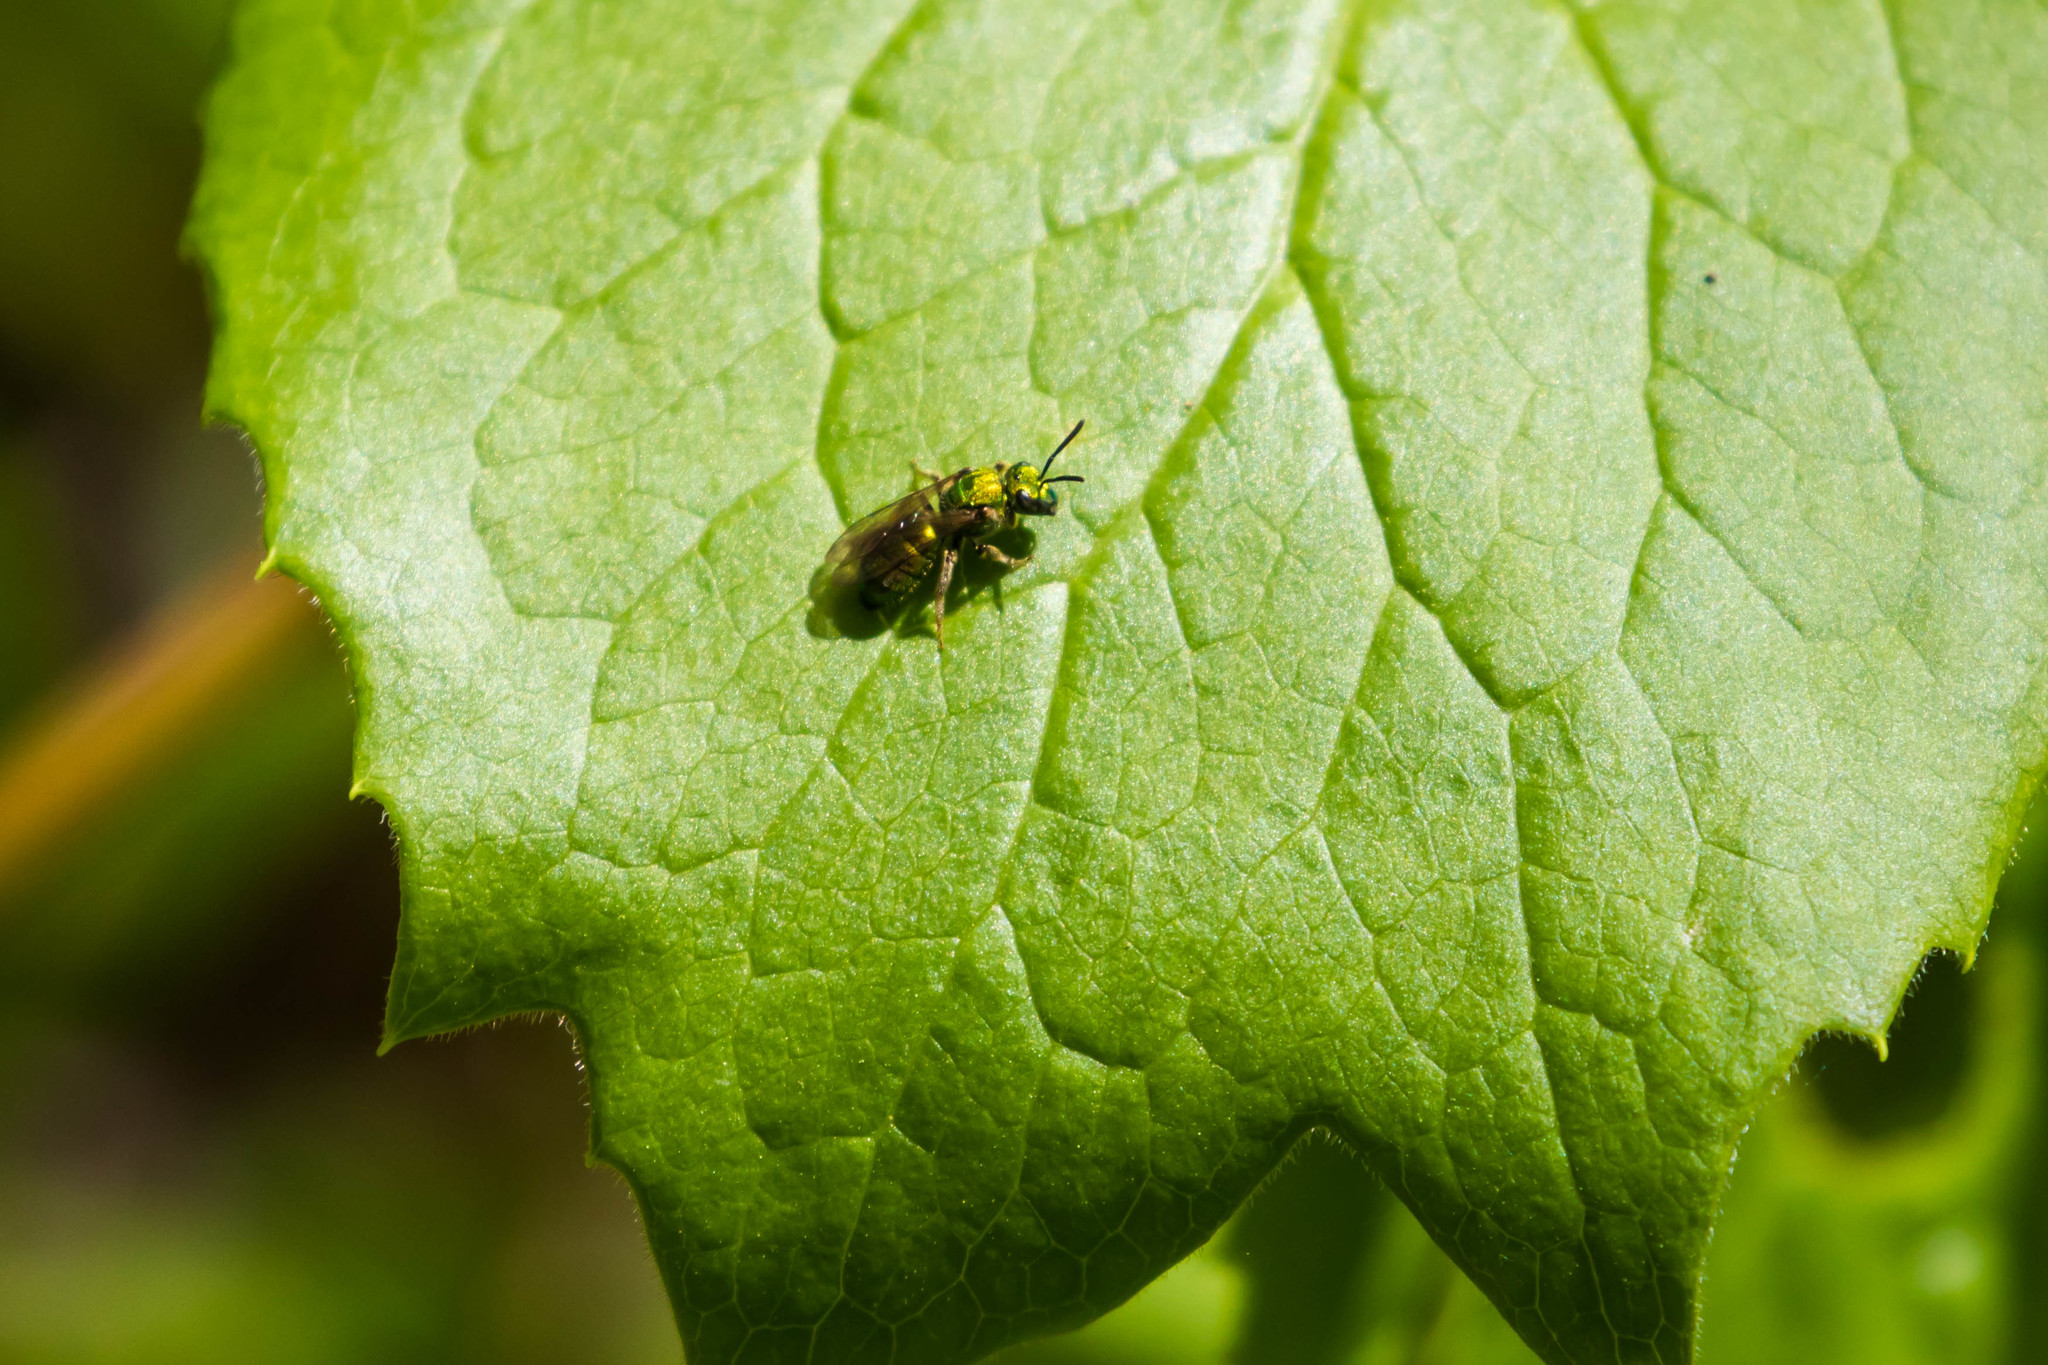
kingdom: Animalia
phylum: Arthropoda
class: Insecta
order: Hymenoptera
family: Halictidae
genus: Augochlora
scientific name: Augochlora pura
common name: Pure green sweat bee
